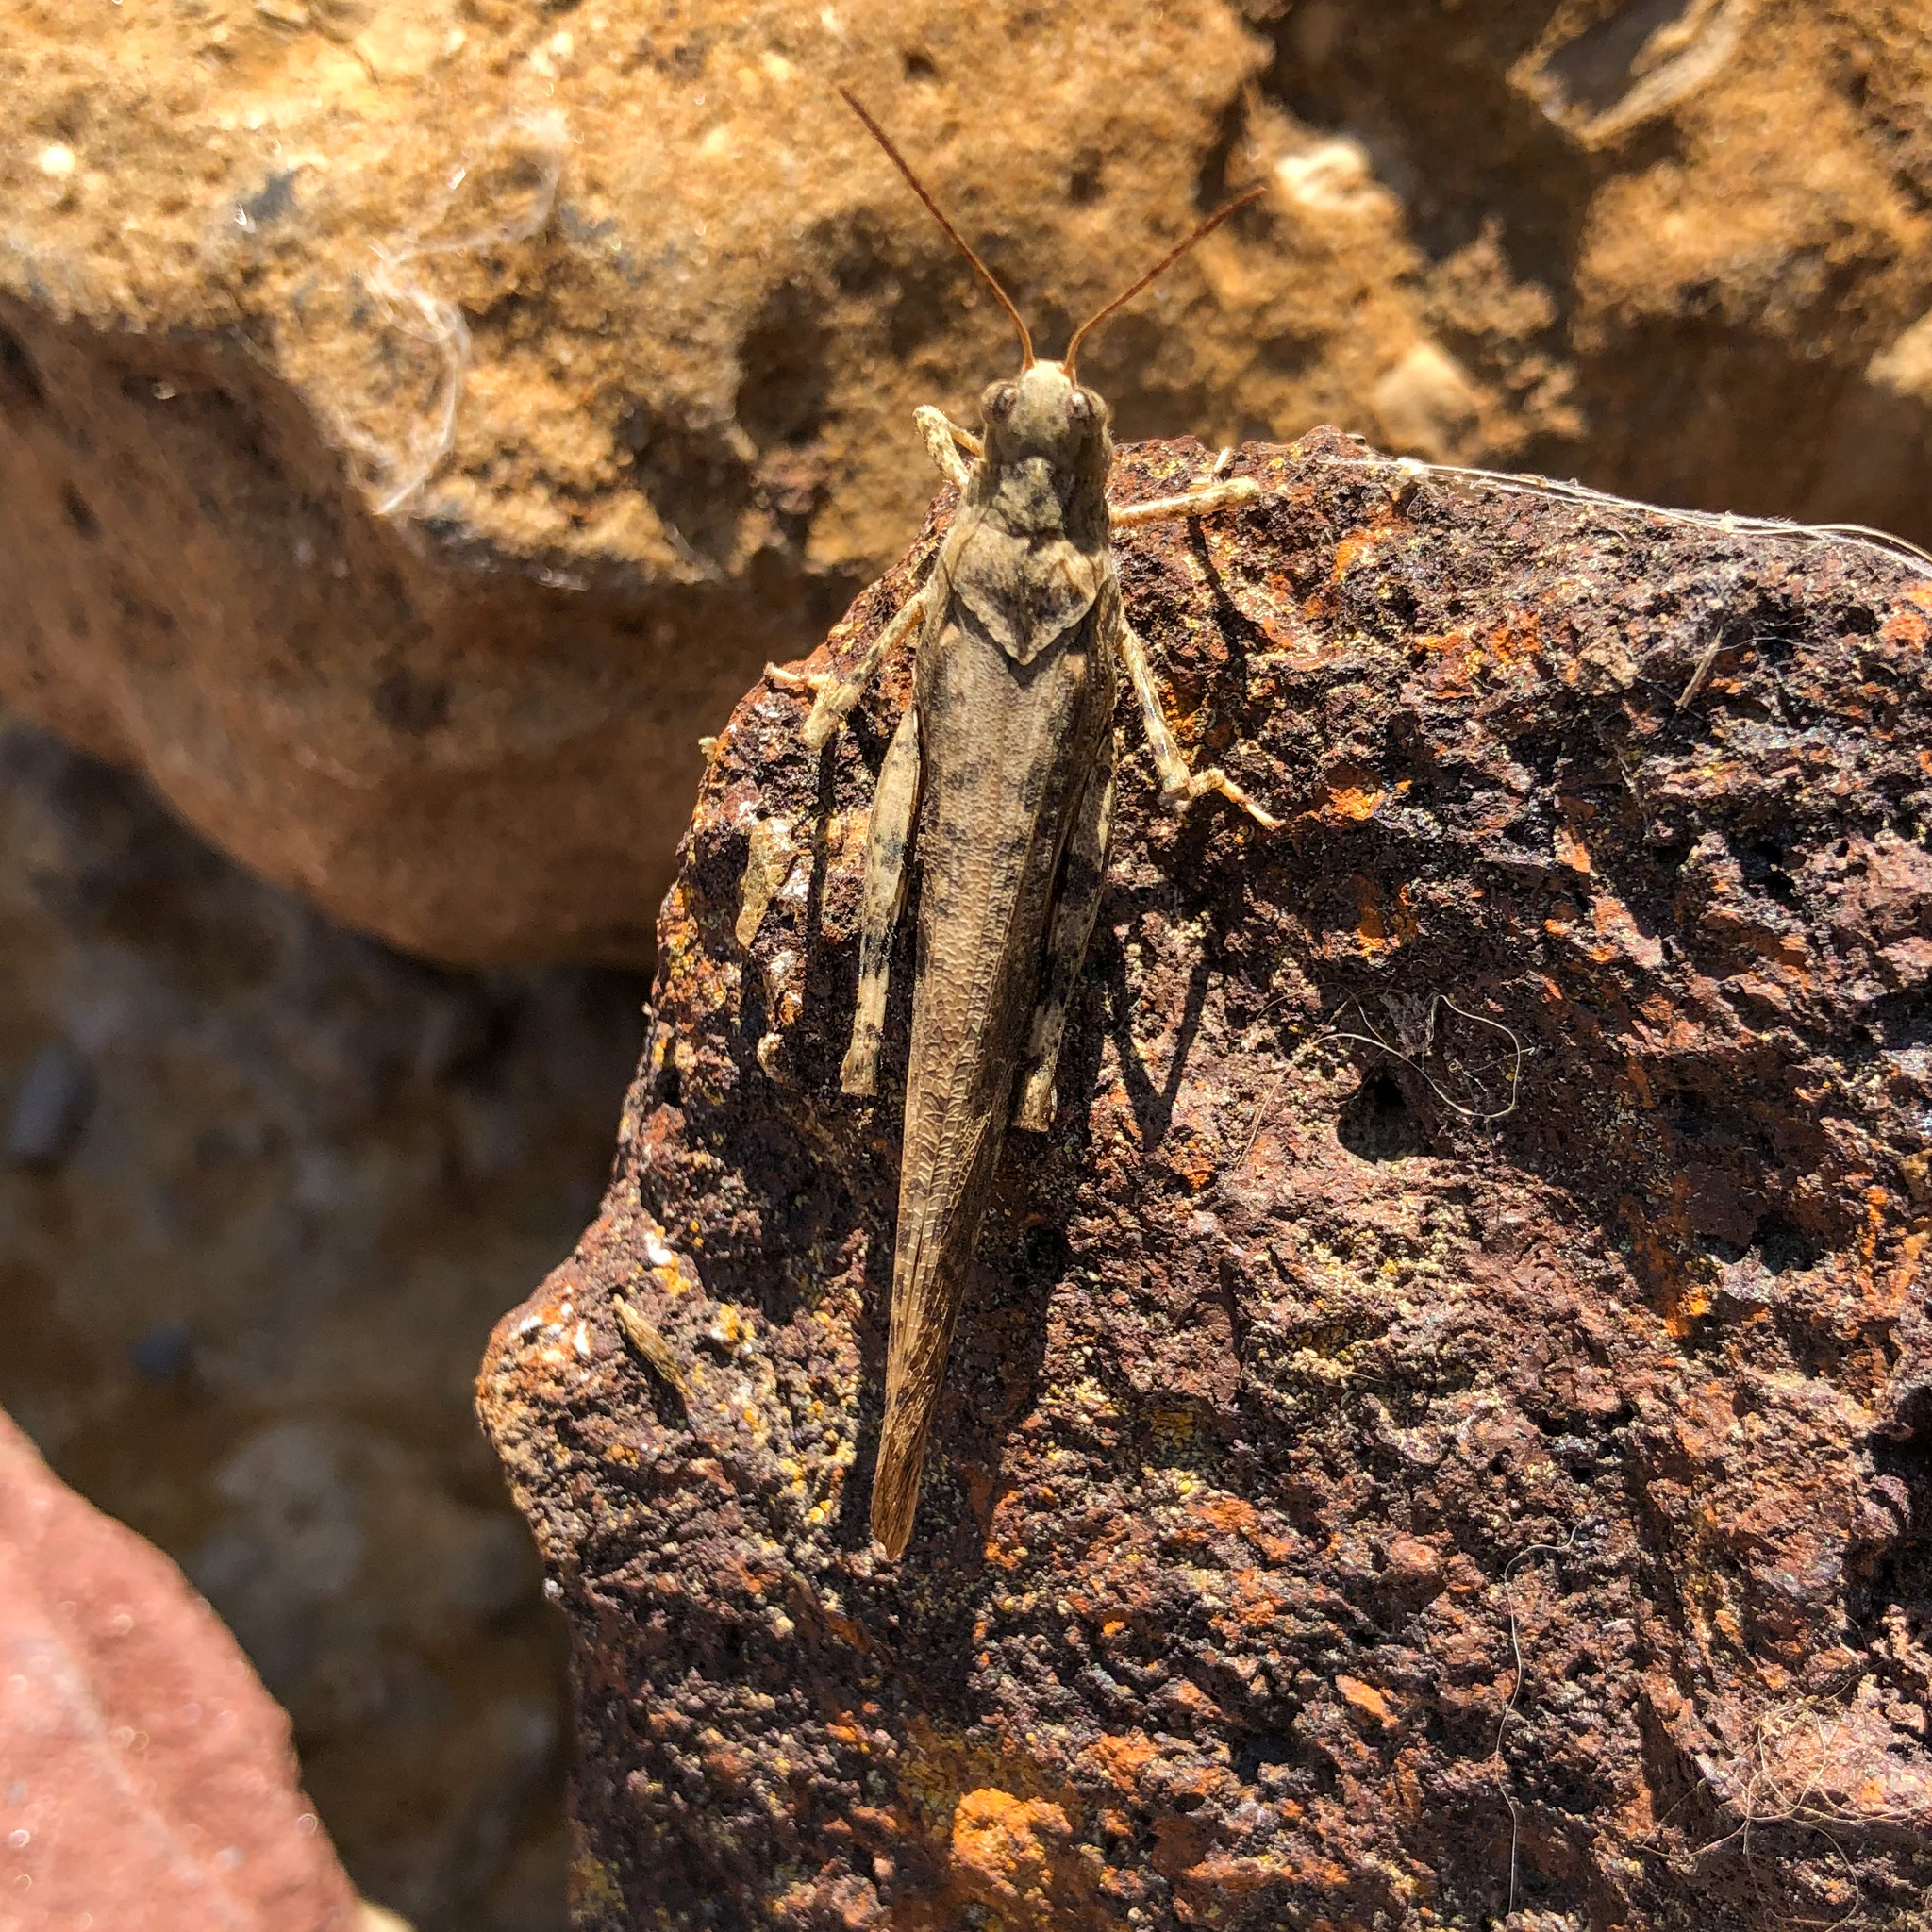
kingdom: Animalia
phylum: Arthropoda
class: Insecta
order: Orthoptera
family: Acrididae
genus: Dissosteira
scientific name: Dissosteira carolina
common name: Carolina grasshopper
